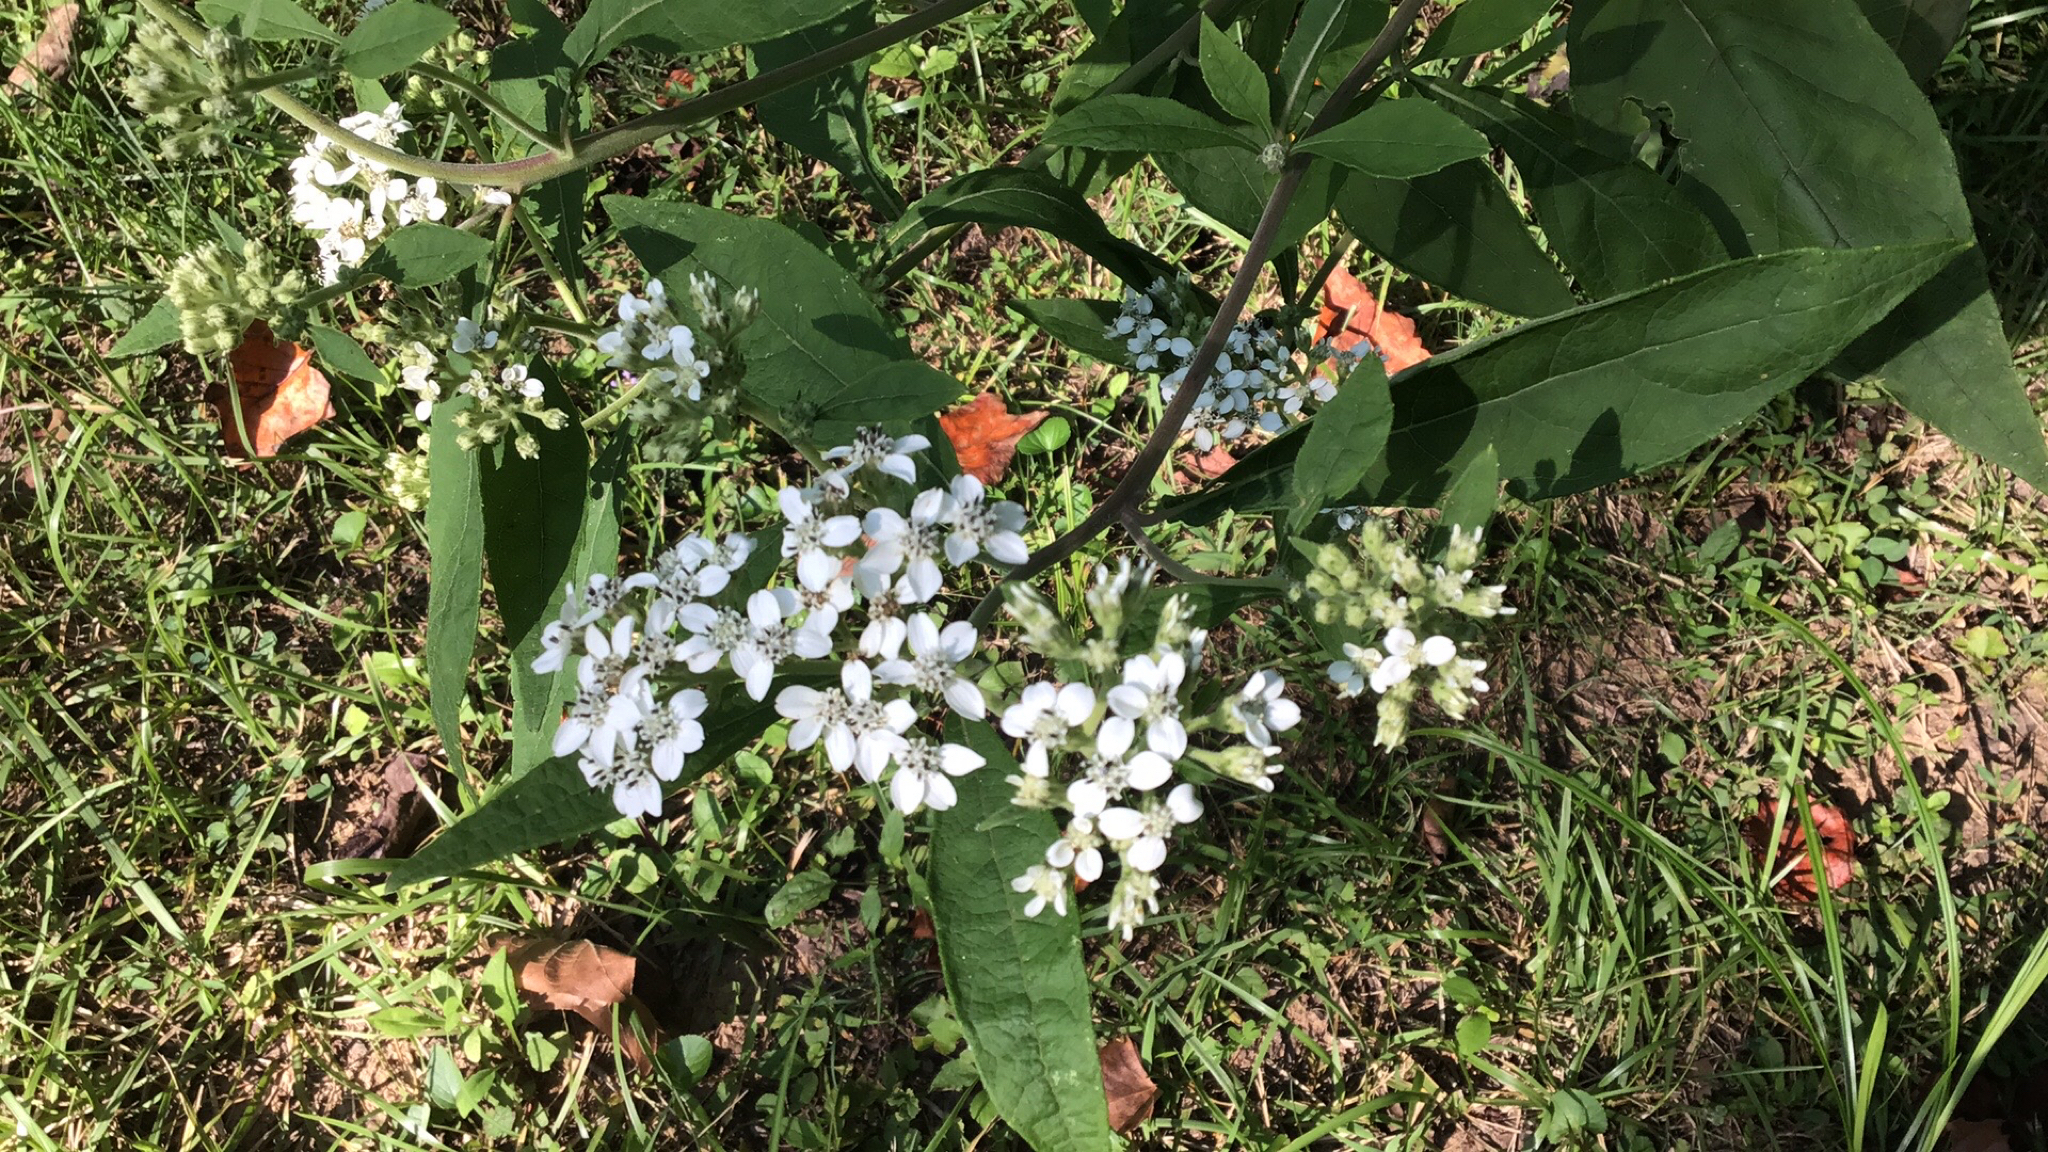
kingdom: Plantae
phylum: Tracheophyta
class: Magnoliopsida
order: Asterales
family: Asteraceae
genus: Verbesina
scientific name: Verbesina virginica
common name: Frostweed
